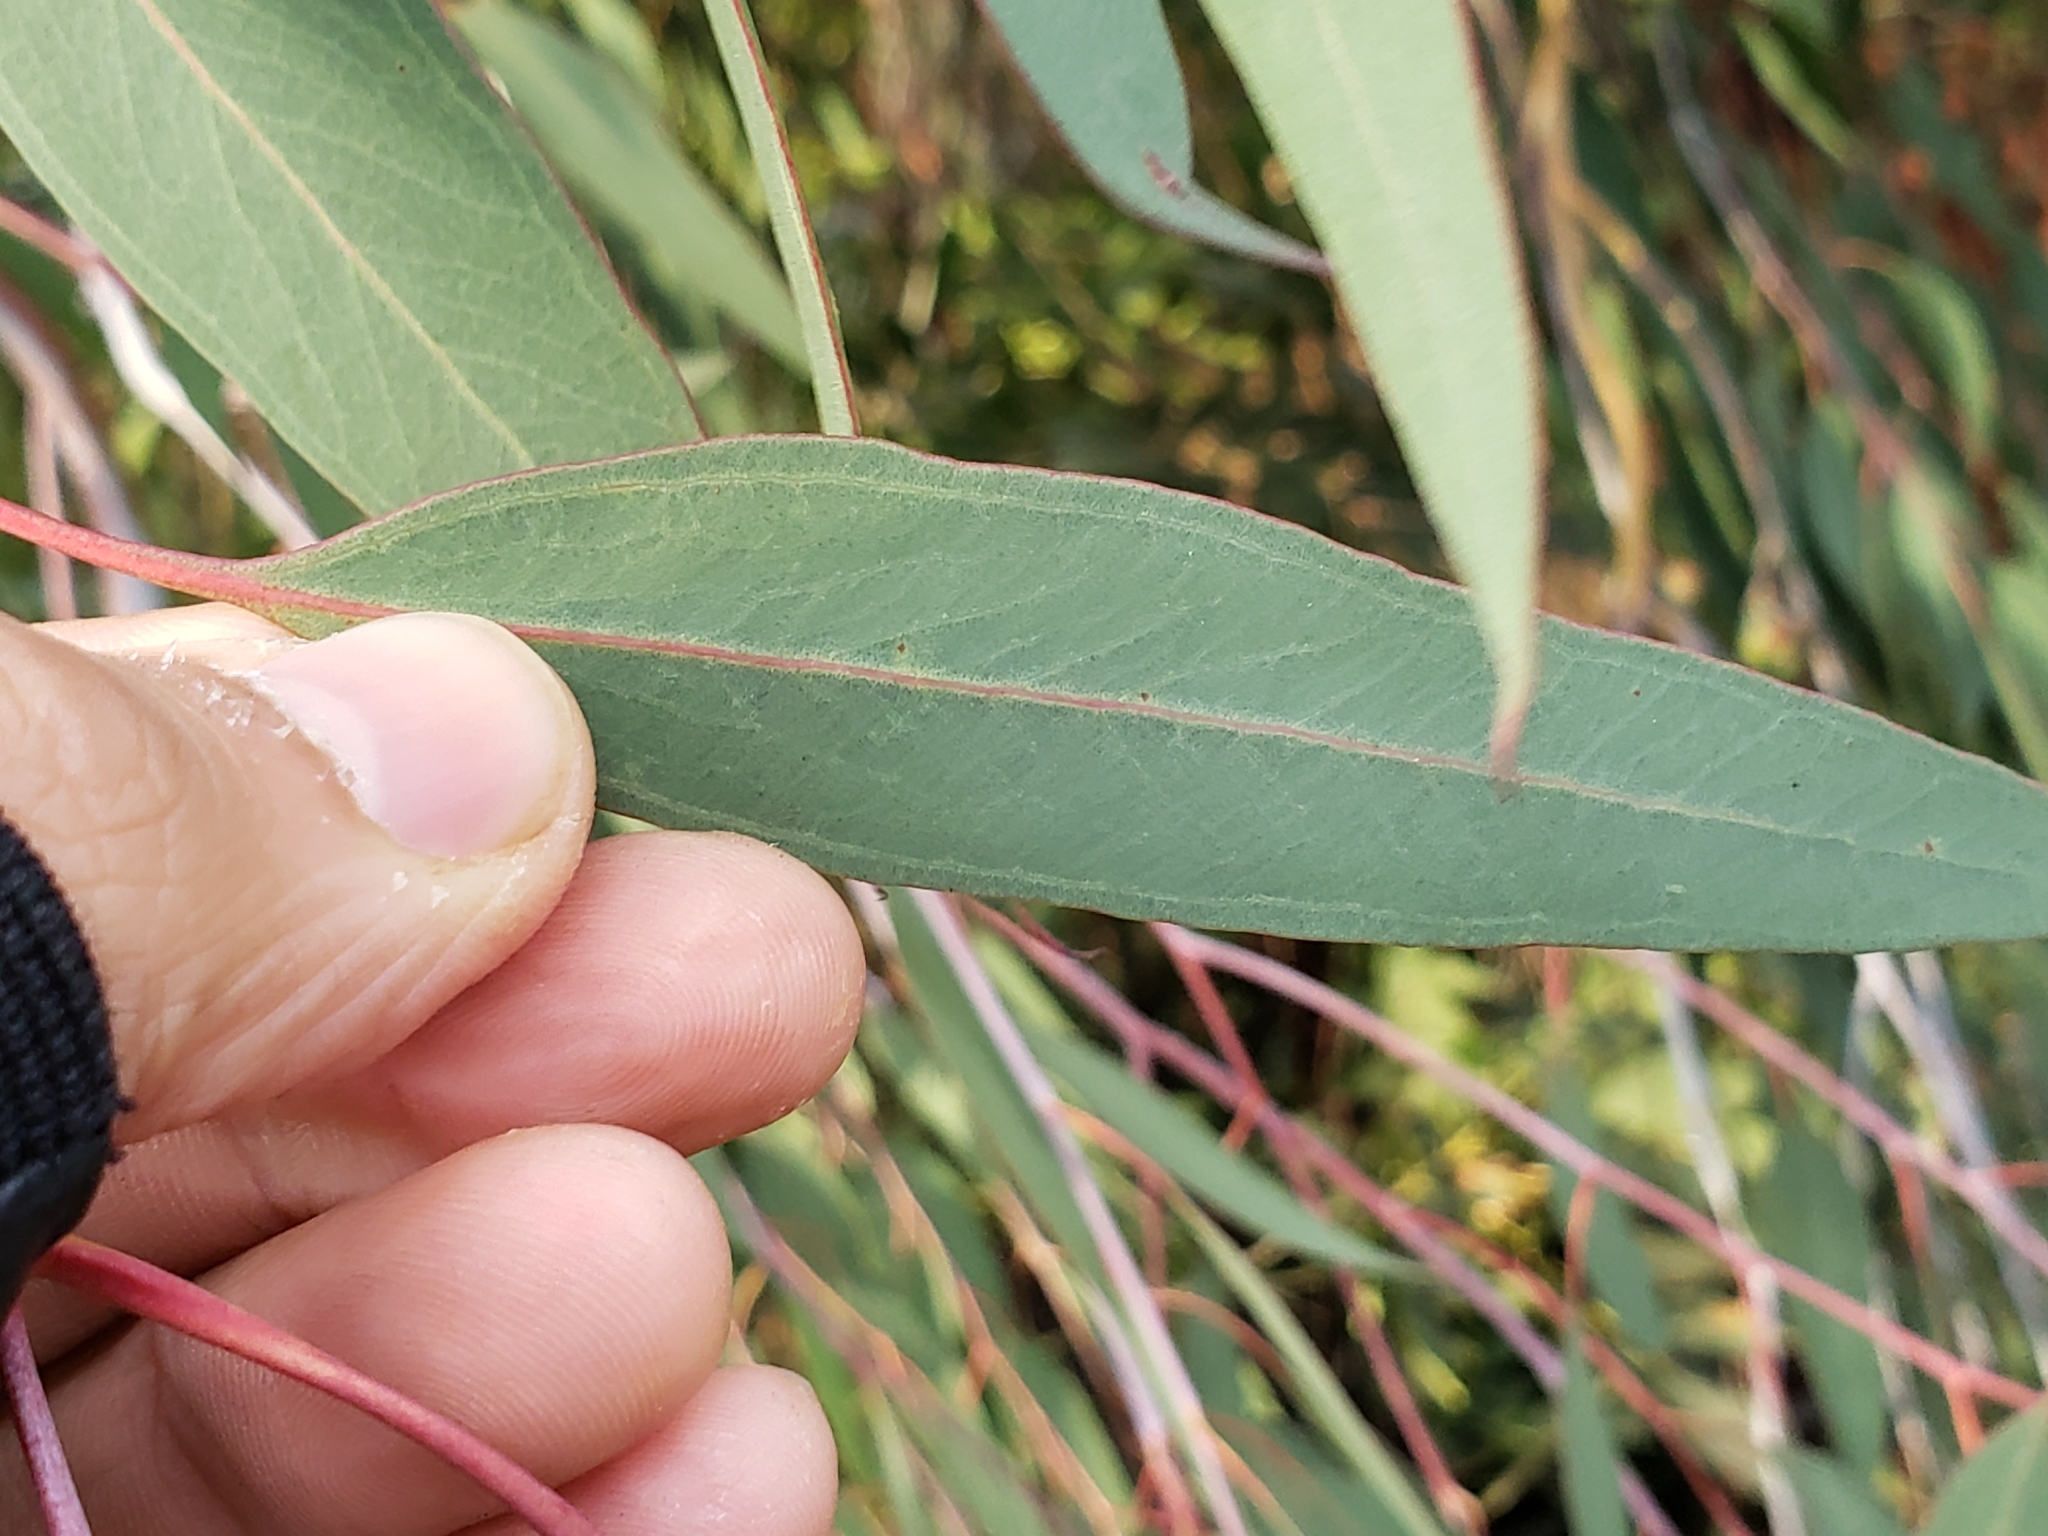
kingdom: Plantae
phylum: Tracheophyta
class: Magnoliopsida
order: Myrtales
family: Myrtaceae
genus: Eucalyptus
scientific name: Eucalyptus globulus
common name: Southern blue-gum
